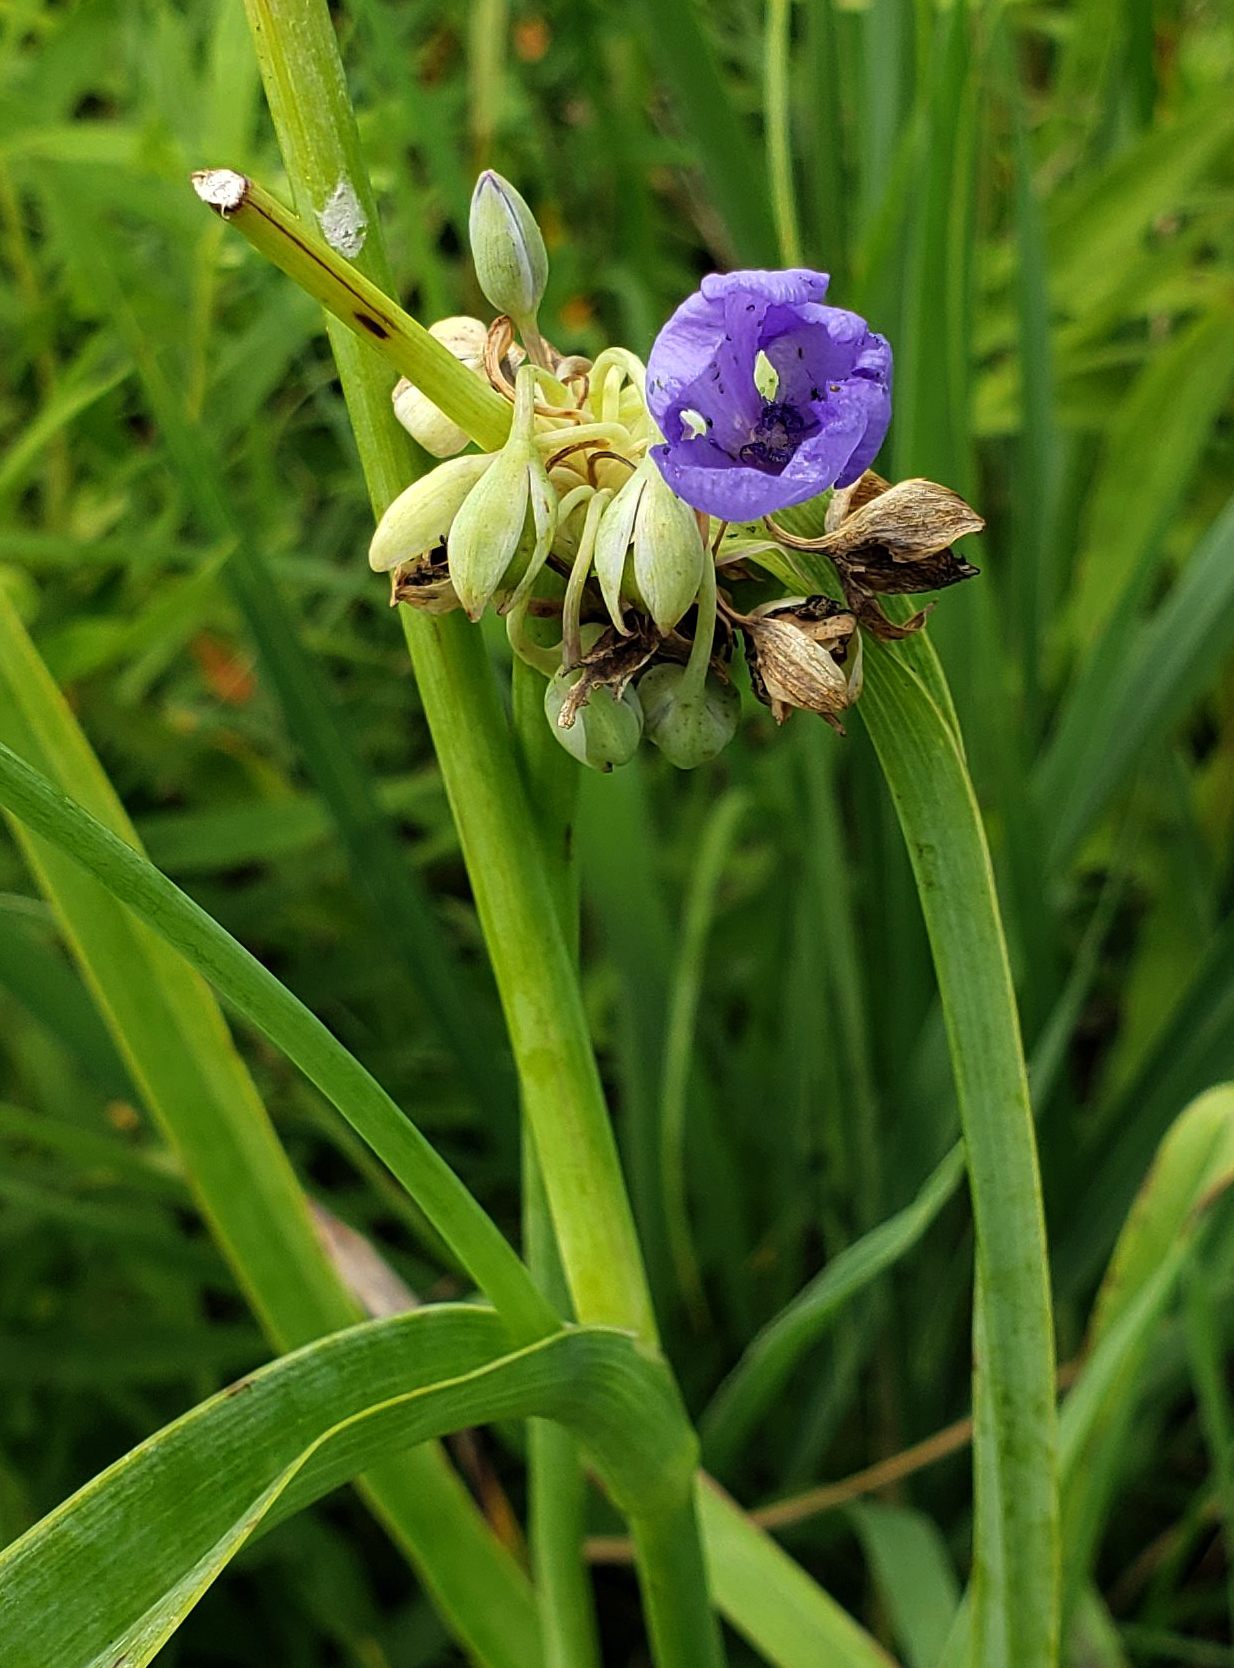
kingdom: Plantae
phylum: Tracheophyta
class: Liliopsida
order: Commelinales
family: Commelinaceae
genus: Tradescantia
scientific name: Tradescantia ohiensis
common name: Ohio spiderwort
